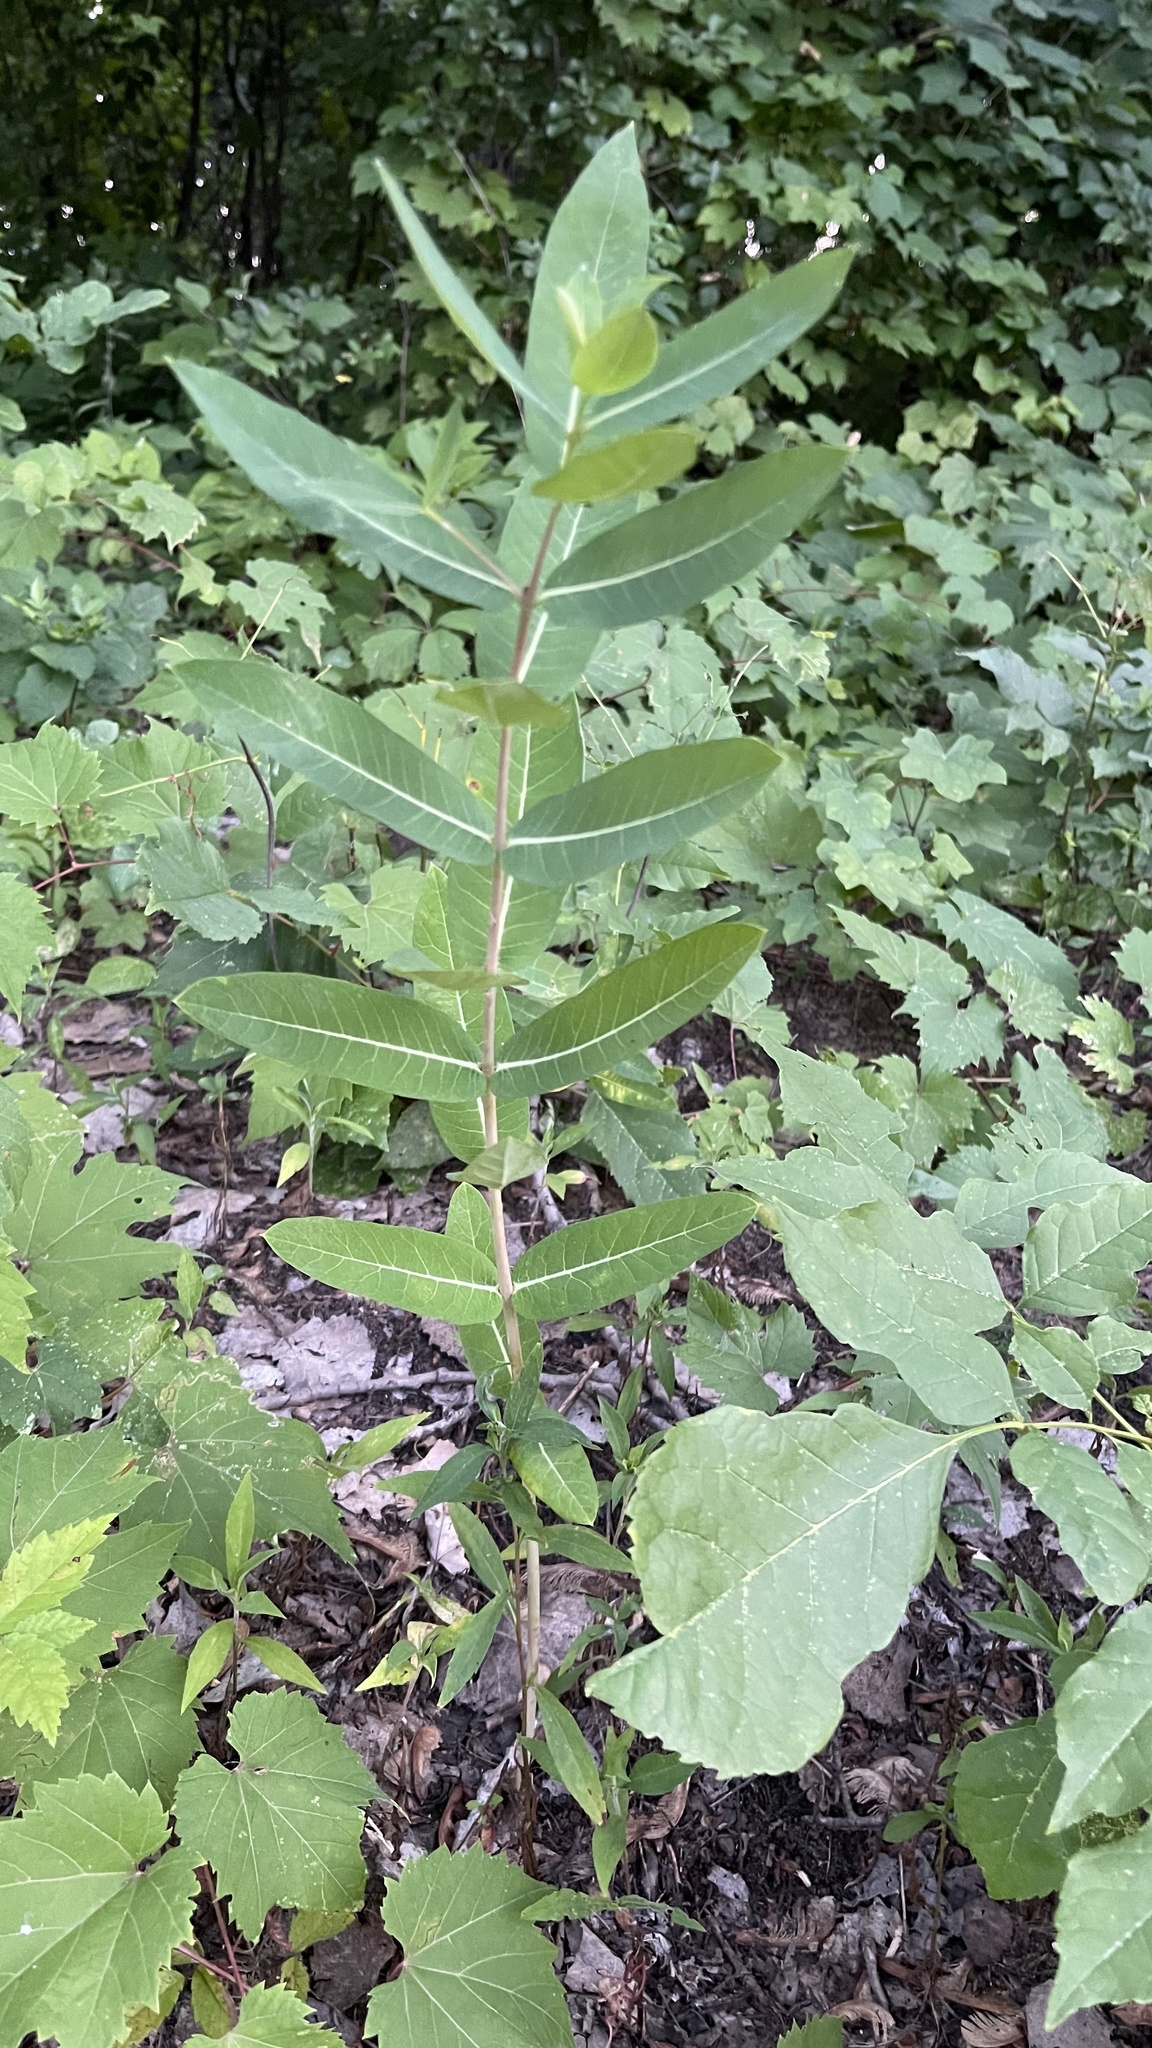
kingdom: Plantae
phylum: Tracheophyta
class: Magnoliopsida
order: Gentianales
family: Apocynaceae
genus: Asclepias
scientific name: Asclepias syriaca
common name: Common milkweed
